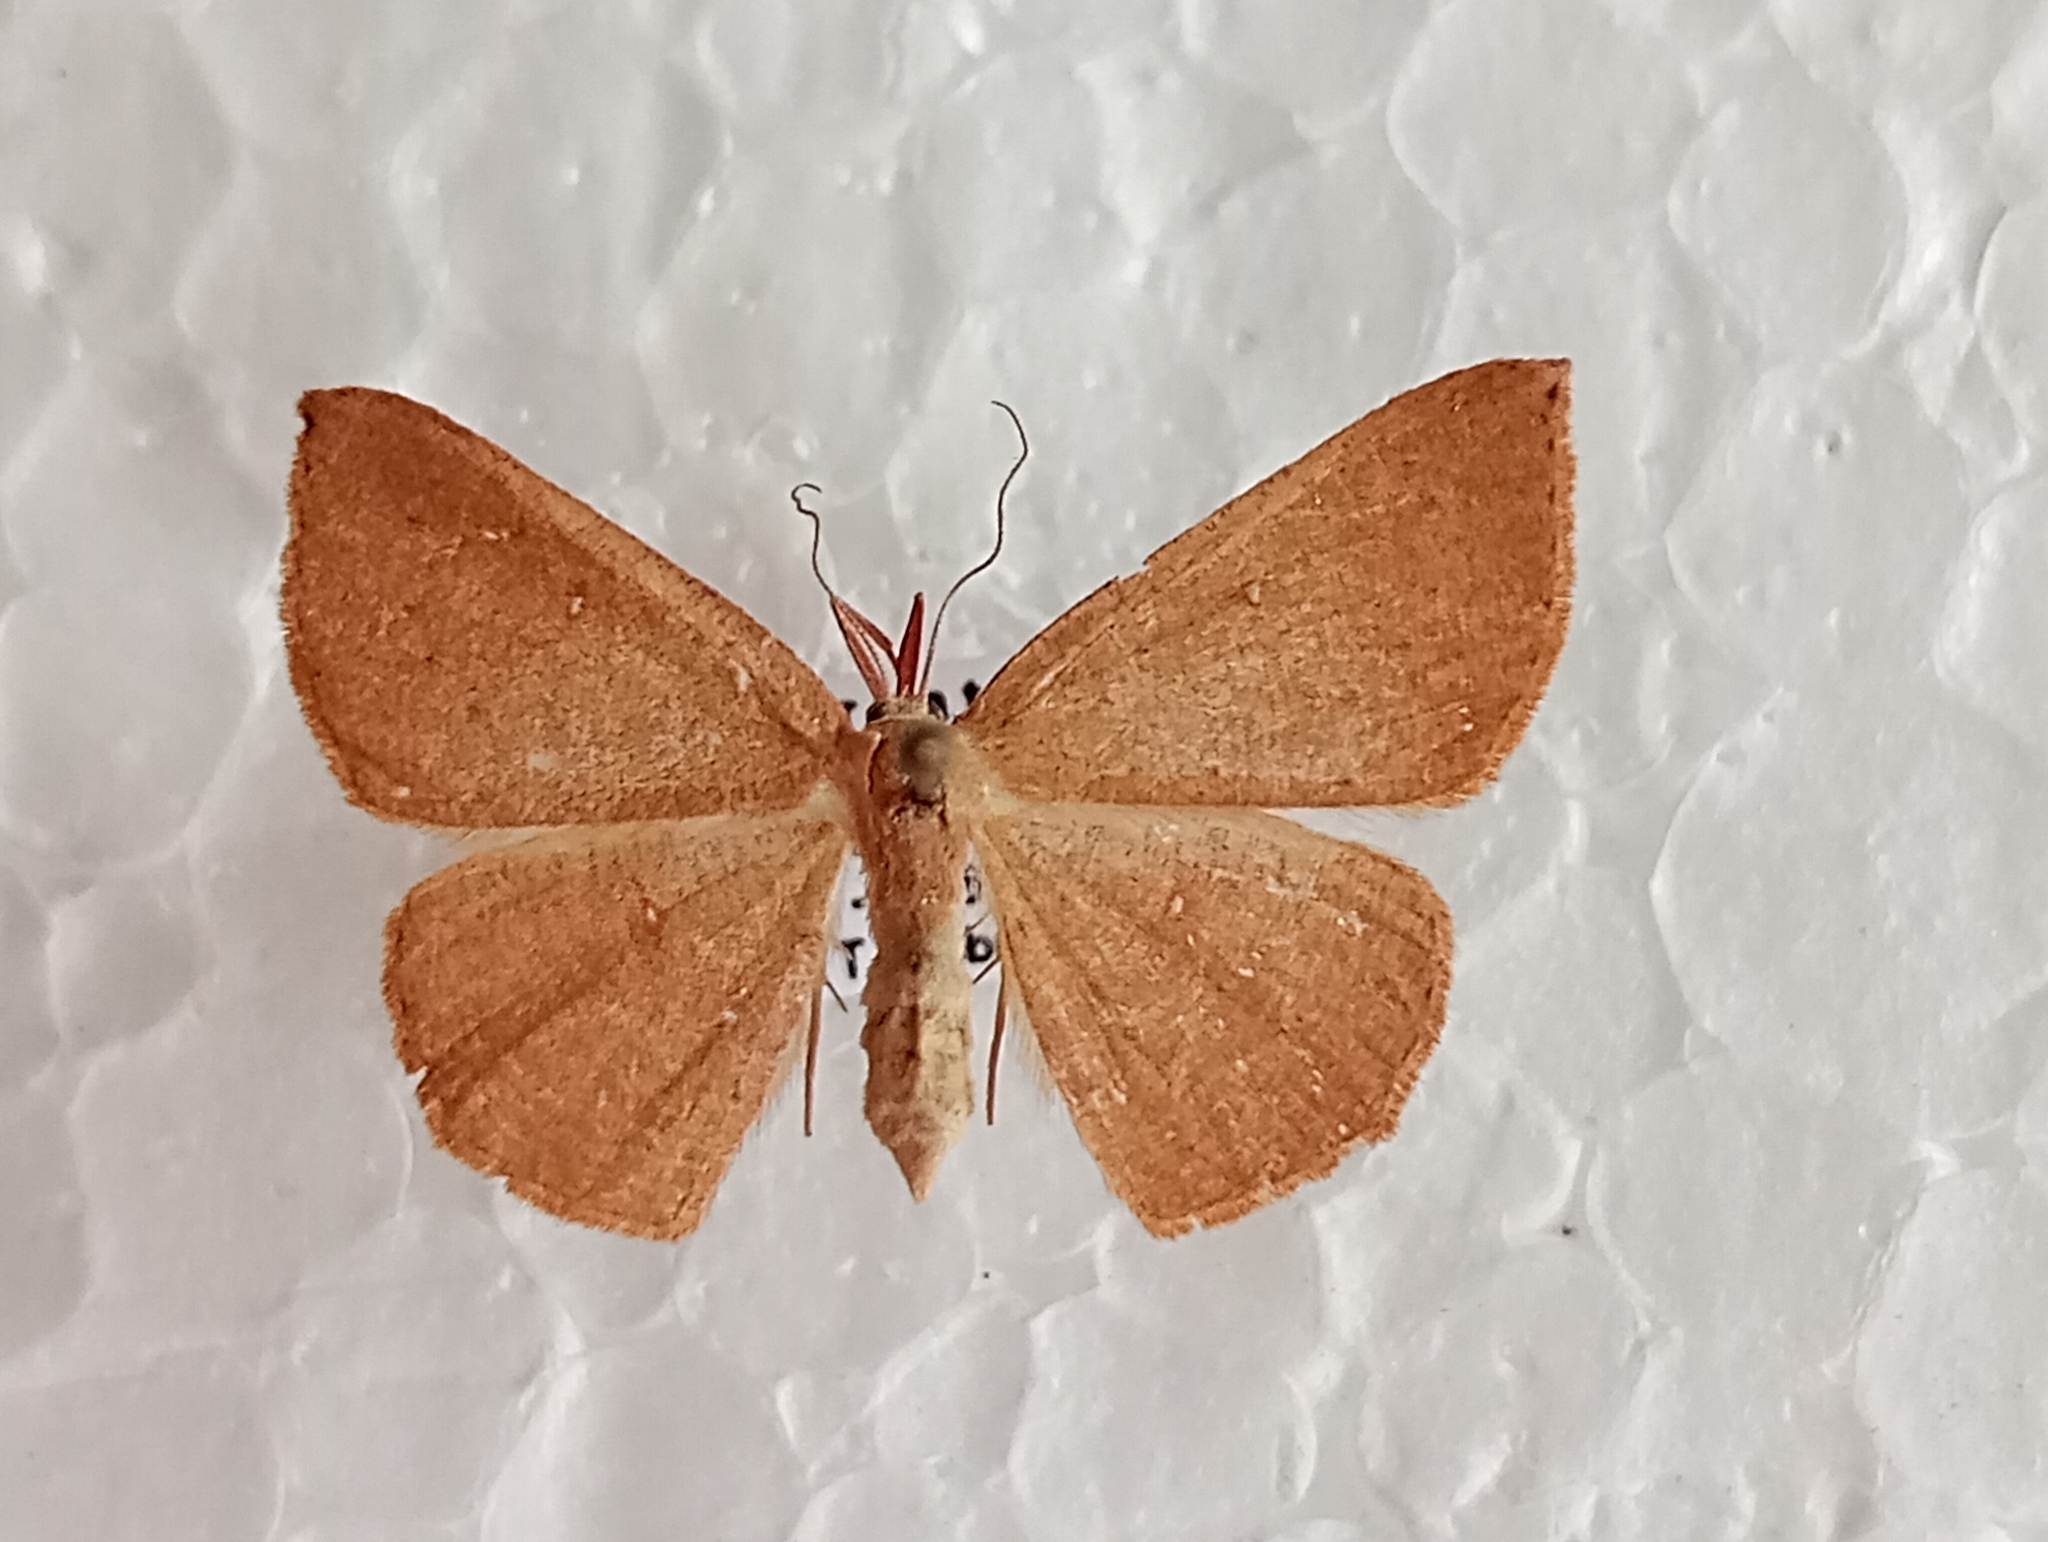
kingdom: Animalia
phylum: Arthropoda
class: Insecta
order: Lepidoptera
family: Geometridae
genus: Cyclophora
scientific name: Cyclophora puppillaria
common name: Blair's mocha
